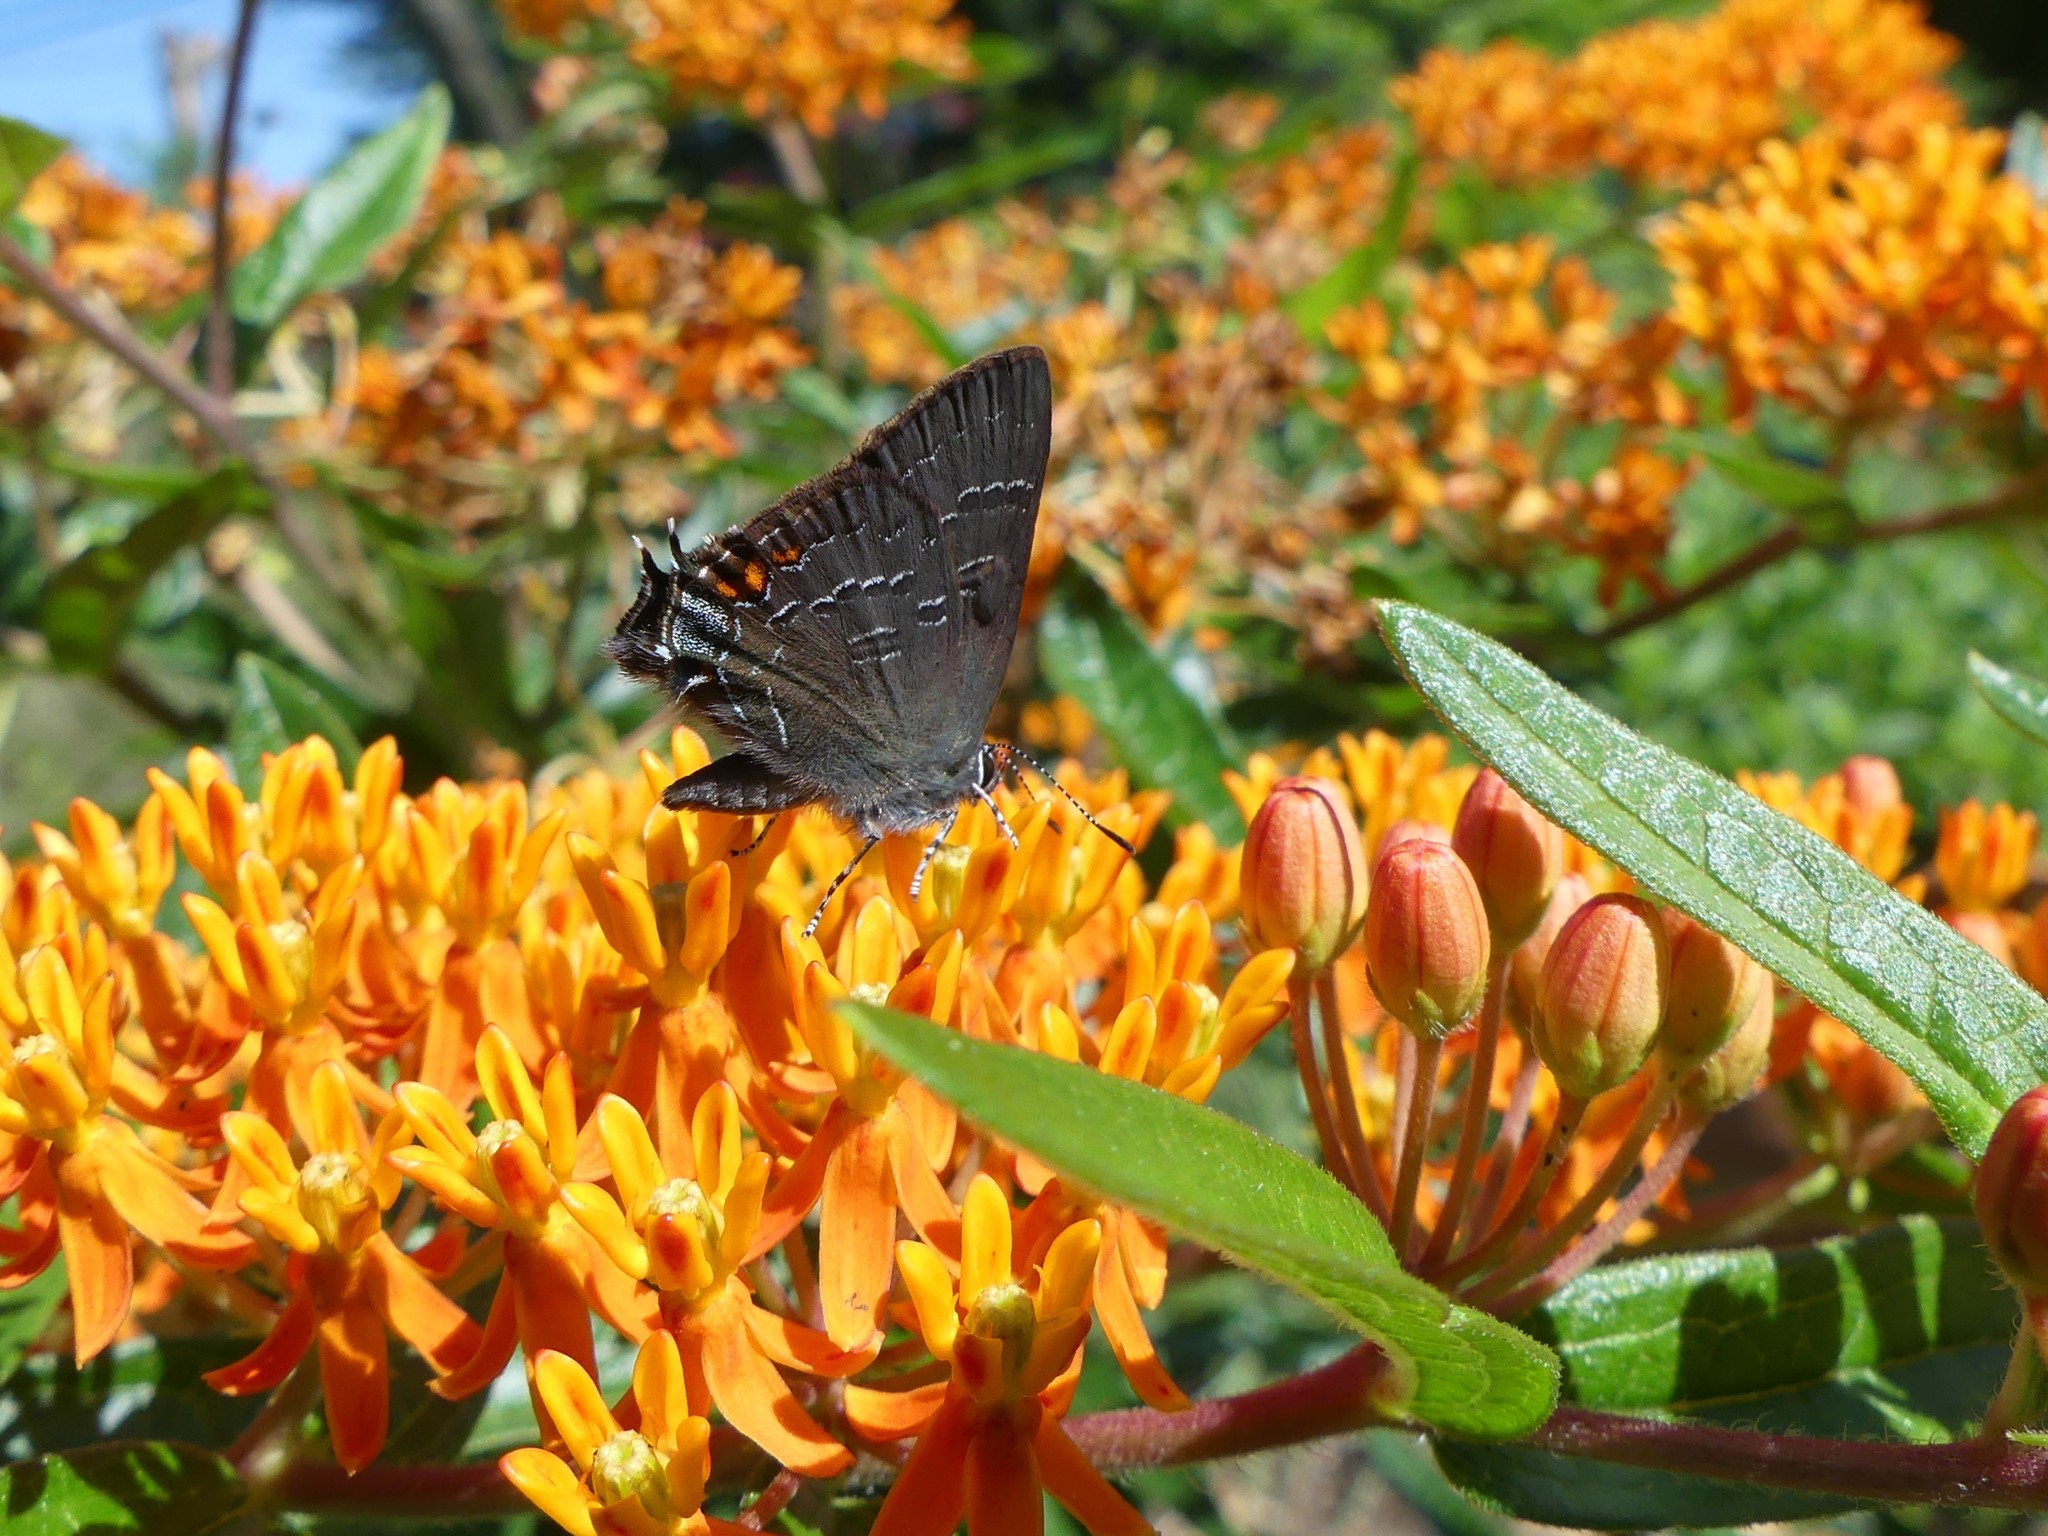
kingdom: Animalia
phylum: Arthropoda
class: Insecta
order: Lepidoptera
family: Lycaenidae
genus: Satyrium
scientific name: Satyrium calanus
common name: Banded hairstreak
